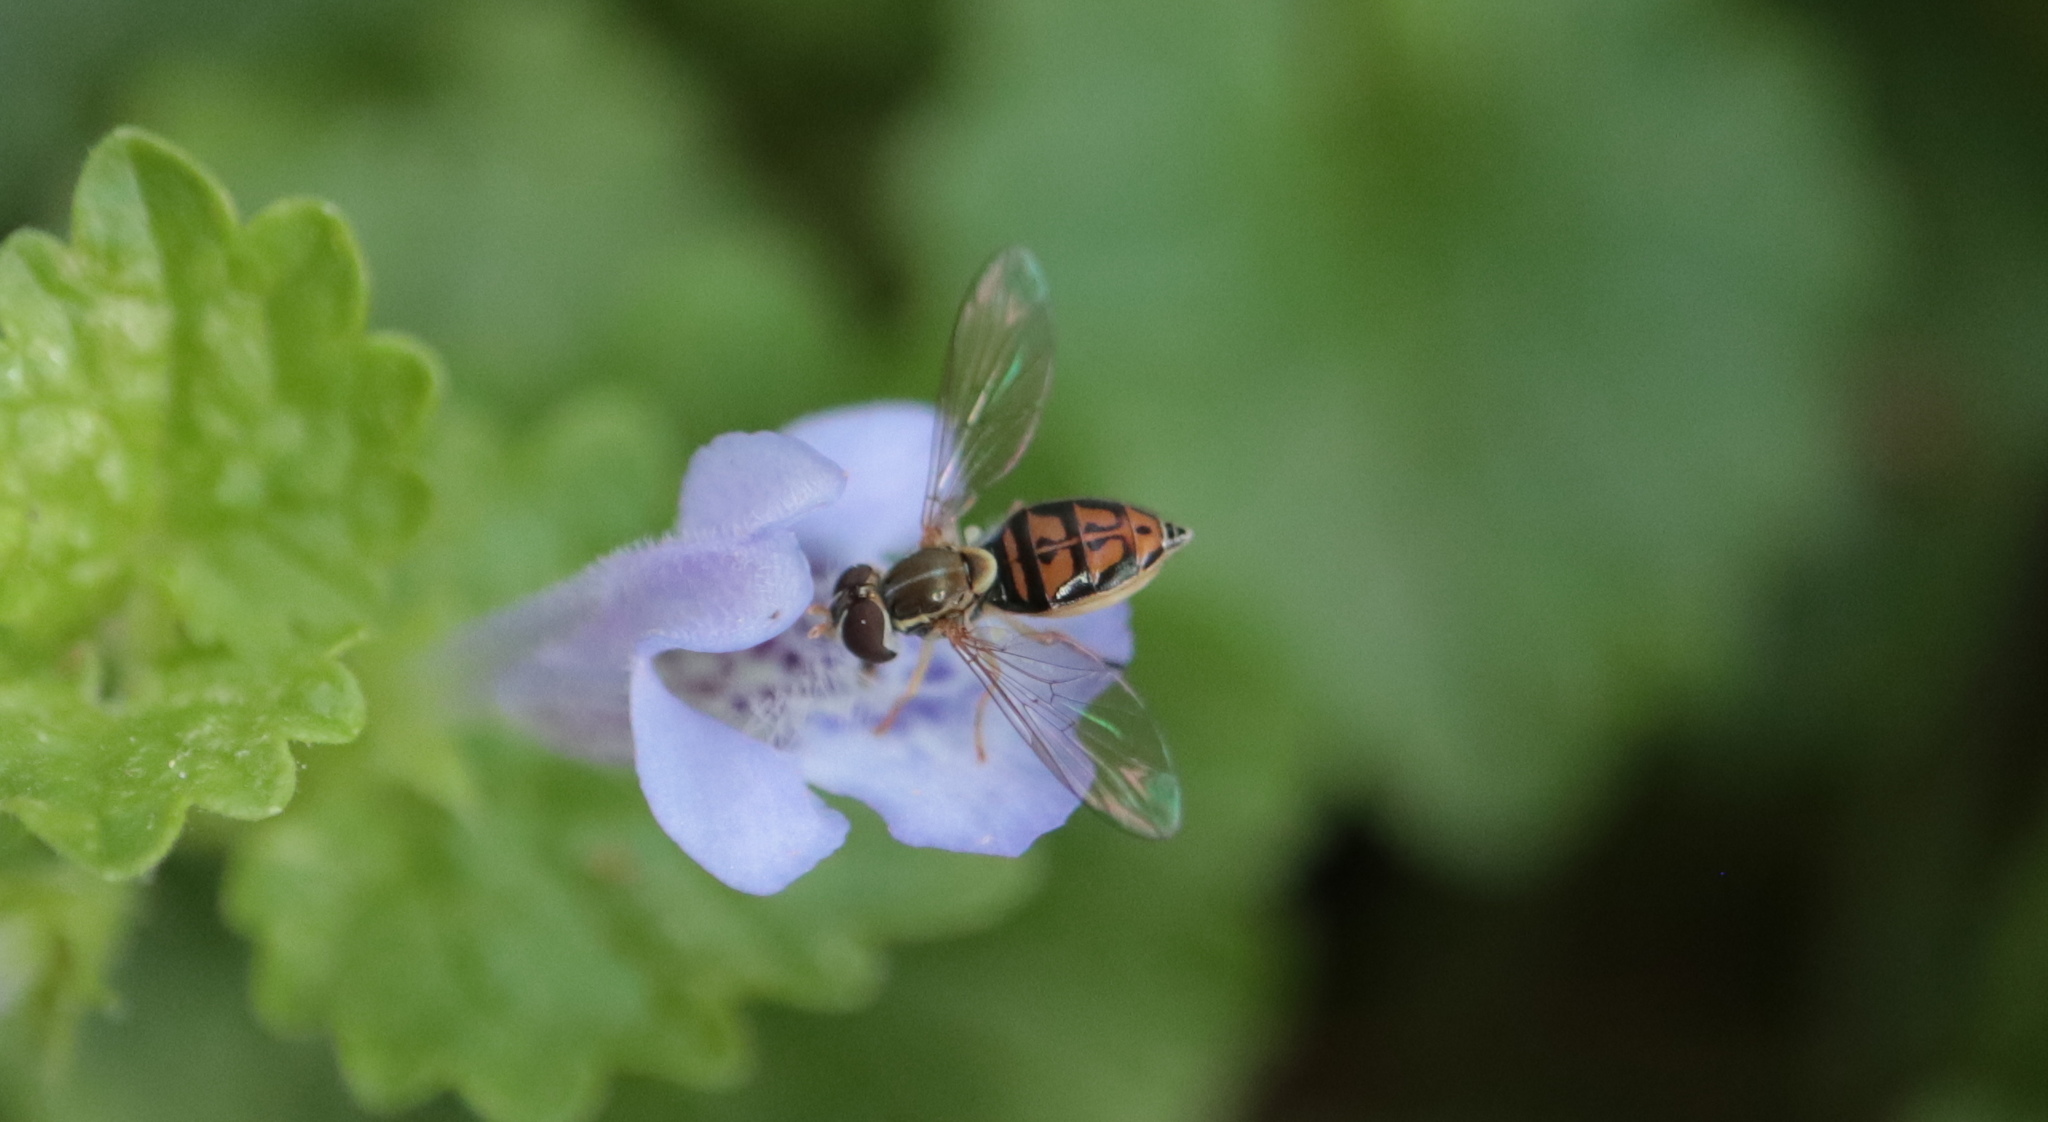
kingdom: Animalia
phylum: Arthropoda
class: Insecta
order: Diptera
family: Syrphidae
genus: Toxomerus
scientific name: Toxomerus marginatus
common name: Syrphid fly
